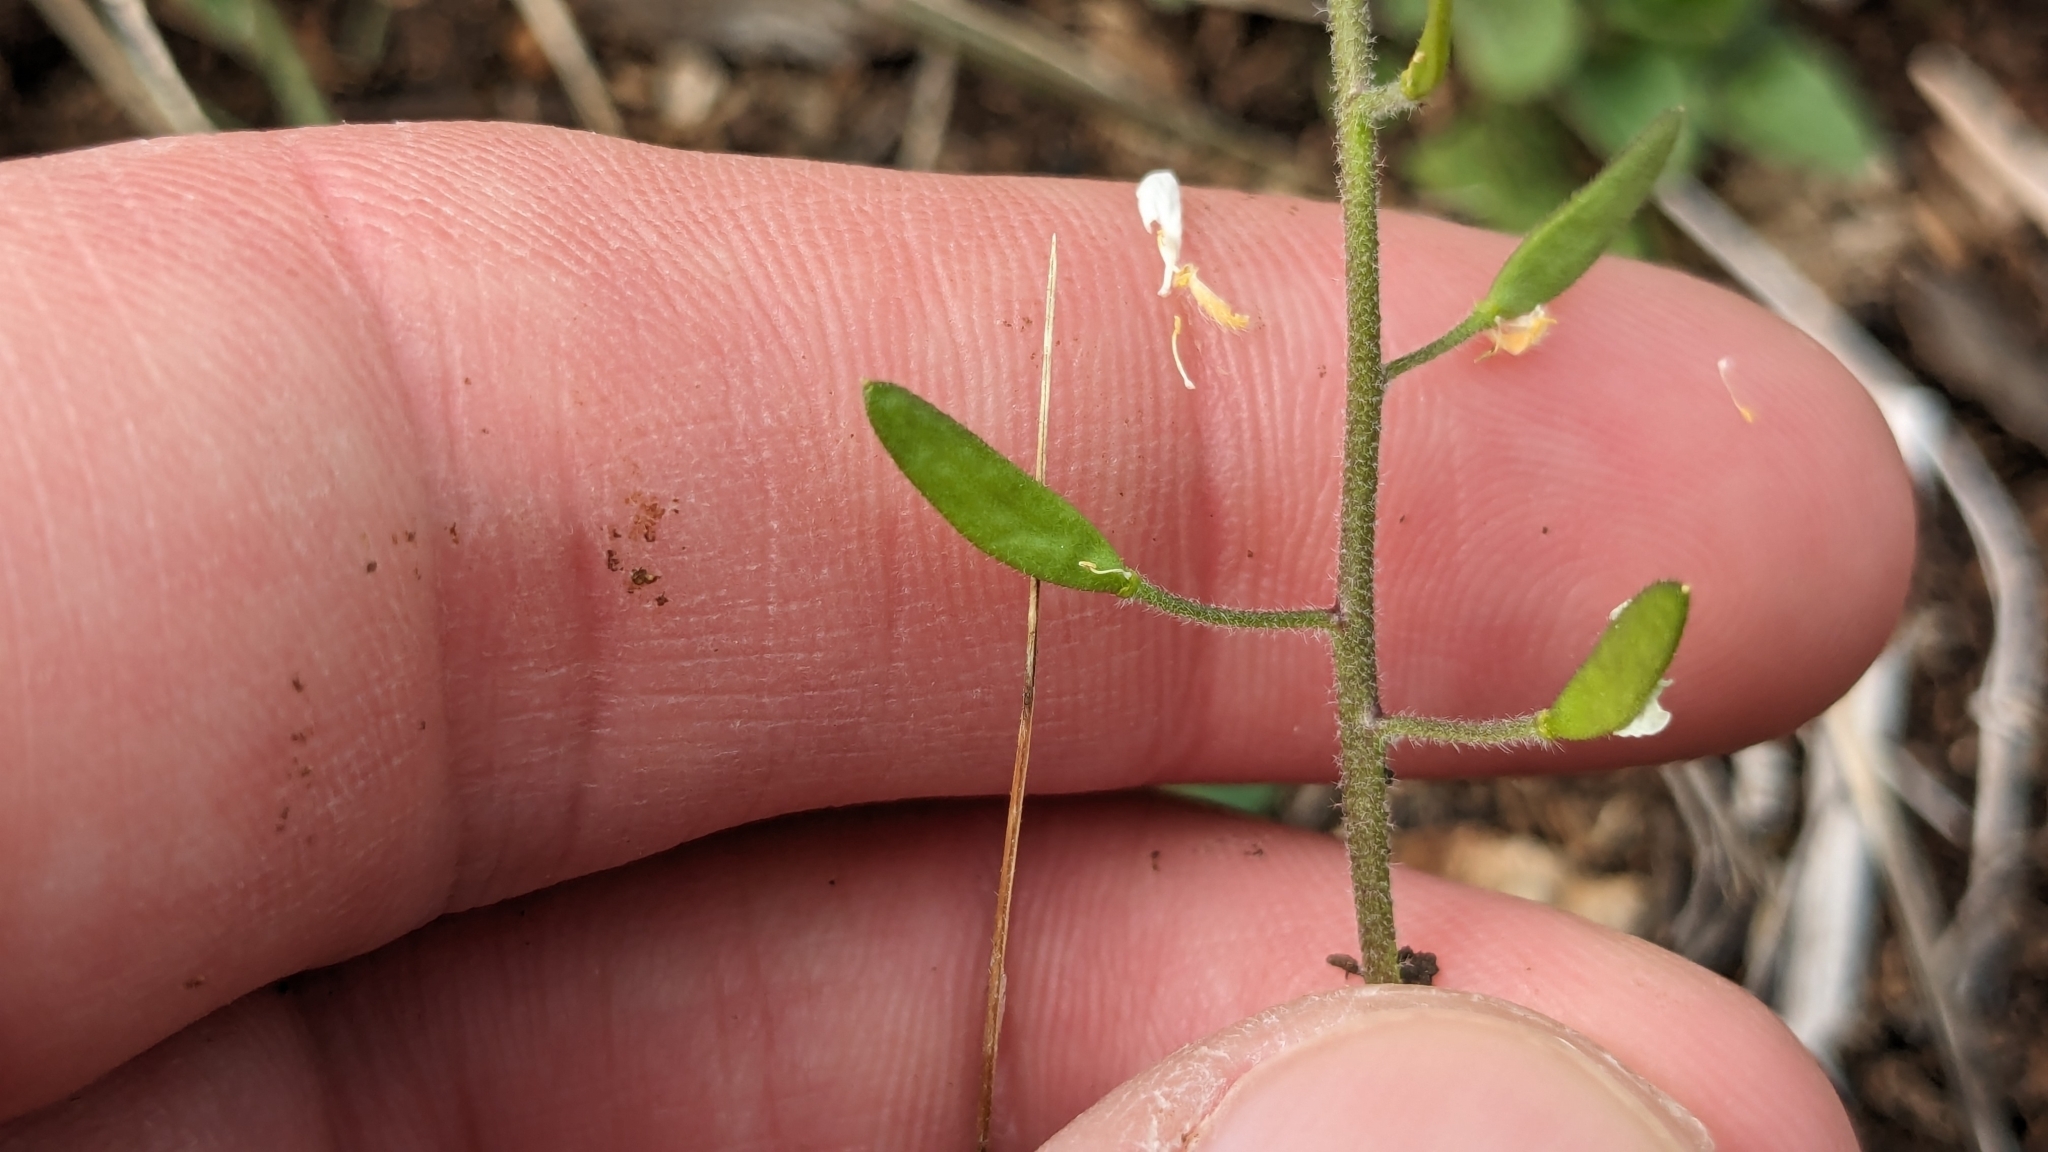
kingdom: Plantae
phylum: Tracheophyta
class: Magnoliopsida
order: Brassicales
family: Brassicaceae
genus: Tomostima
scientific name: Tomostima cuneifolia
